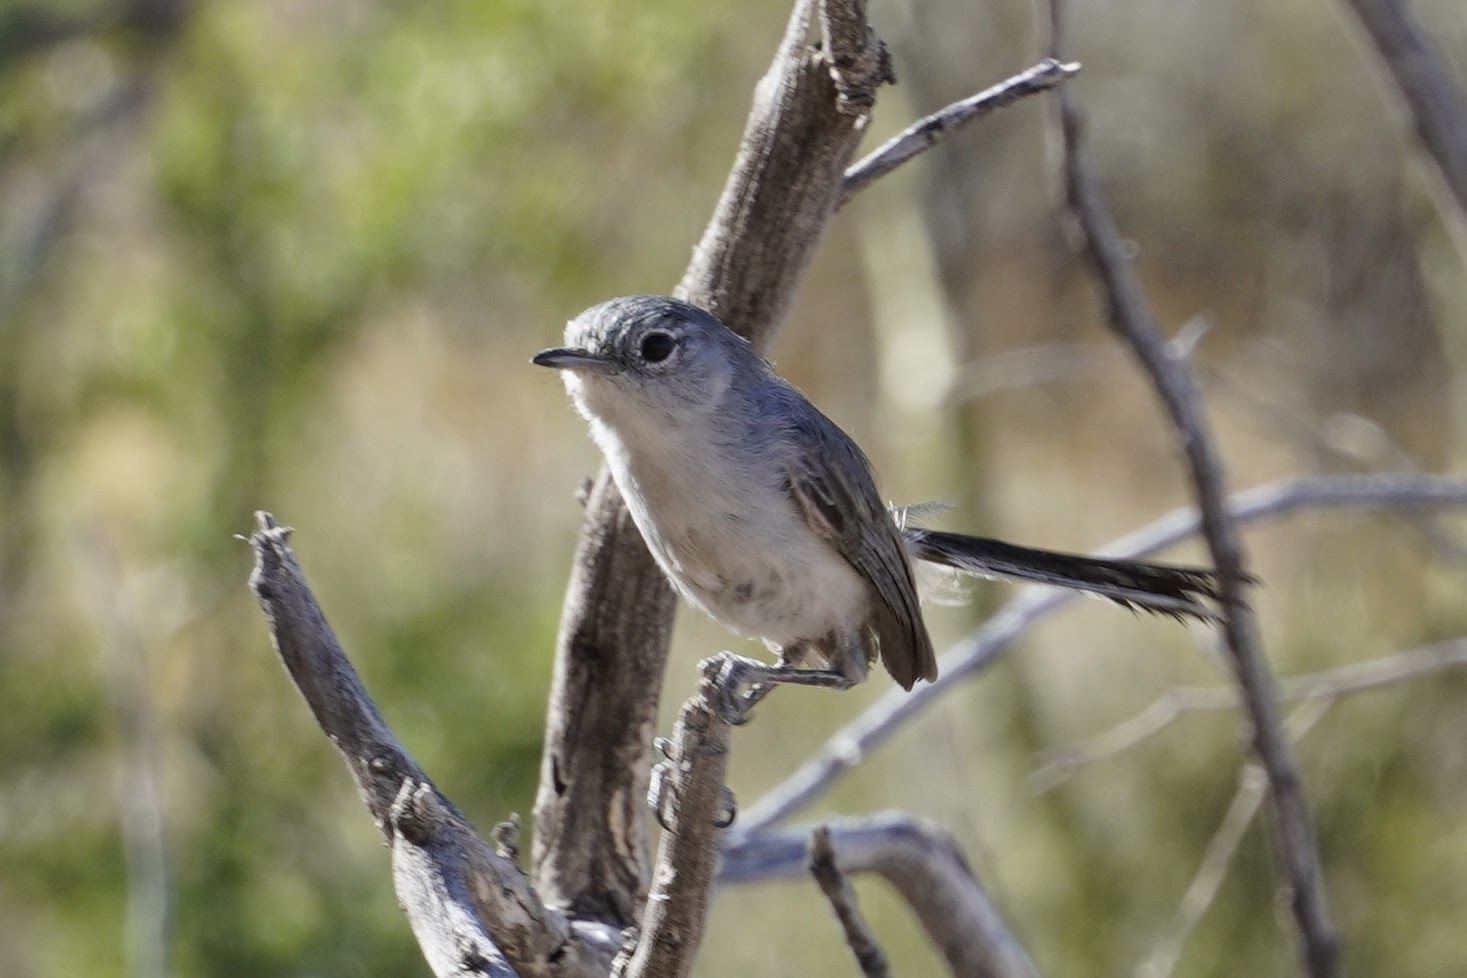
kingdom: Animalia
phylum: Chordata
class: Aves
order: Passeriformes
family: Polioptilidae
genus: Polioptila
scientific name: Polioptila melanura
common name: Black-tailed gnatcatcher
